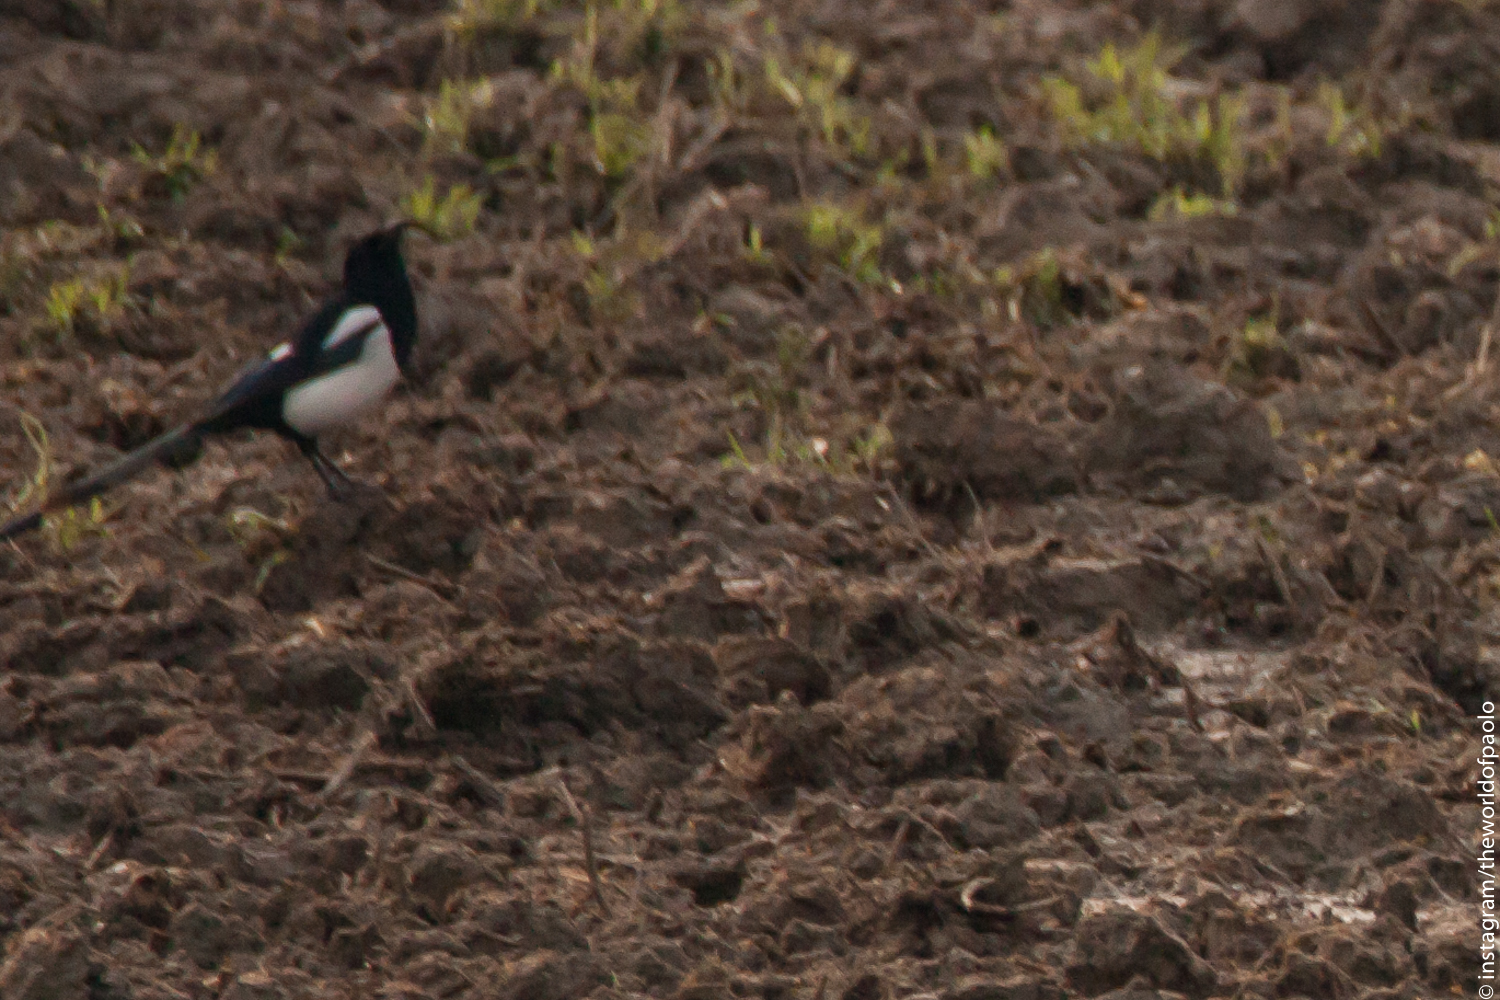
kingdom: Animalia
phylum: Chordata
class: Aves
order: Passeriformes
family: Corvidae
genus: Pica
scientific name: Pica pica
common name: Eurasian magpie
